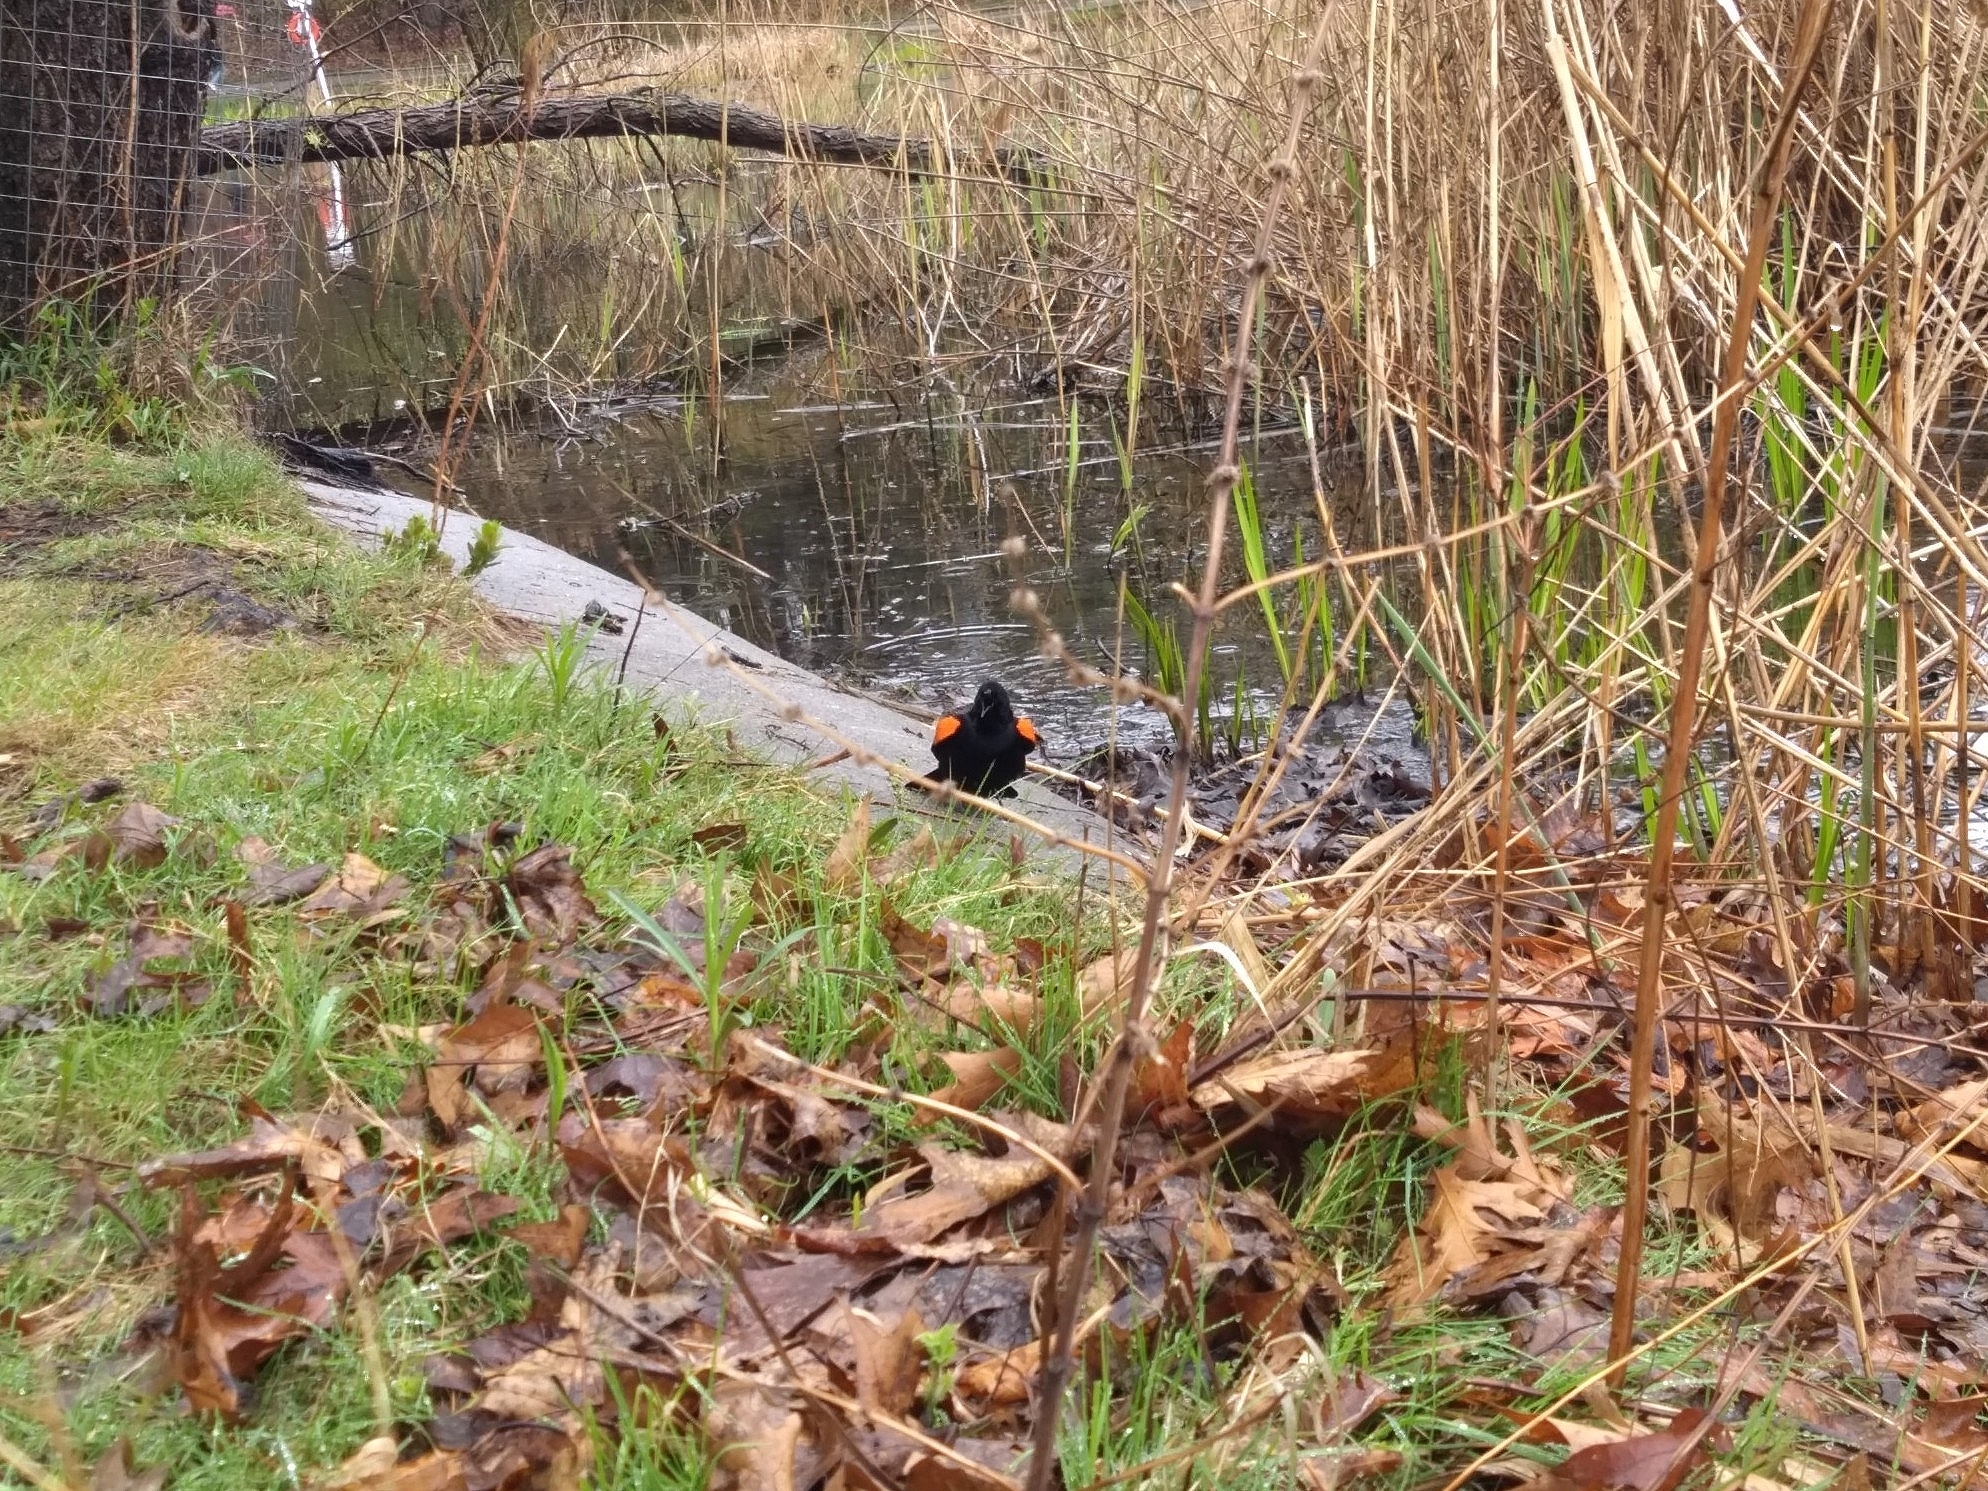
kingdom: Animalia
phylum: Chordata
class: Aves
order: Passeriformes
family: Icteridae
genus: Agelaius
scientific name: Agelaius phoeniceus
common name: Red-winged blackbird
